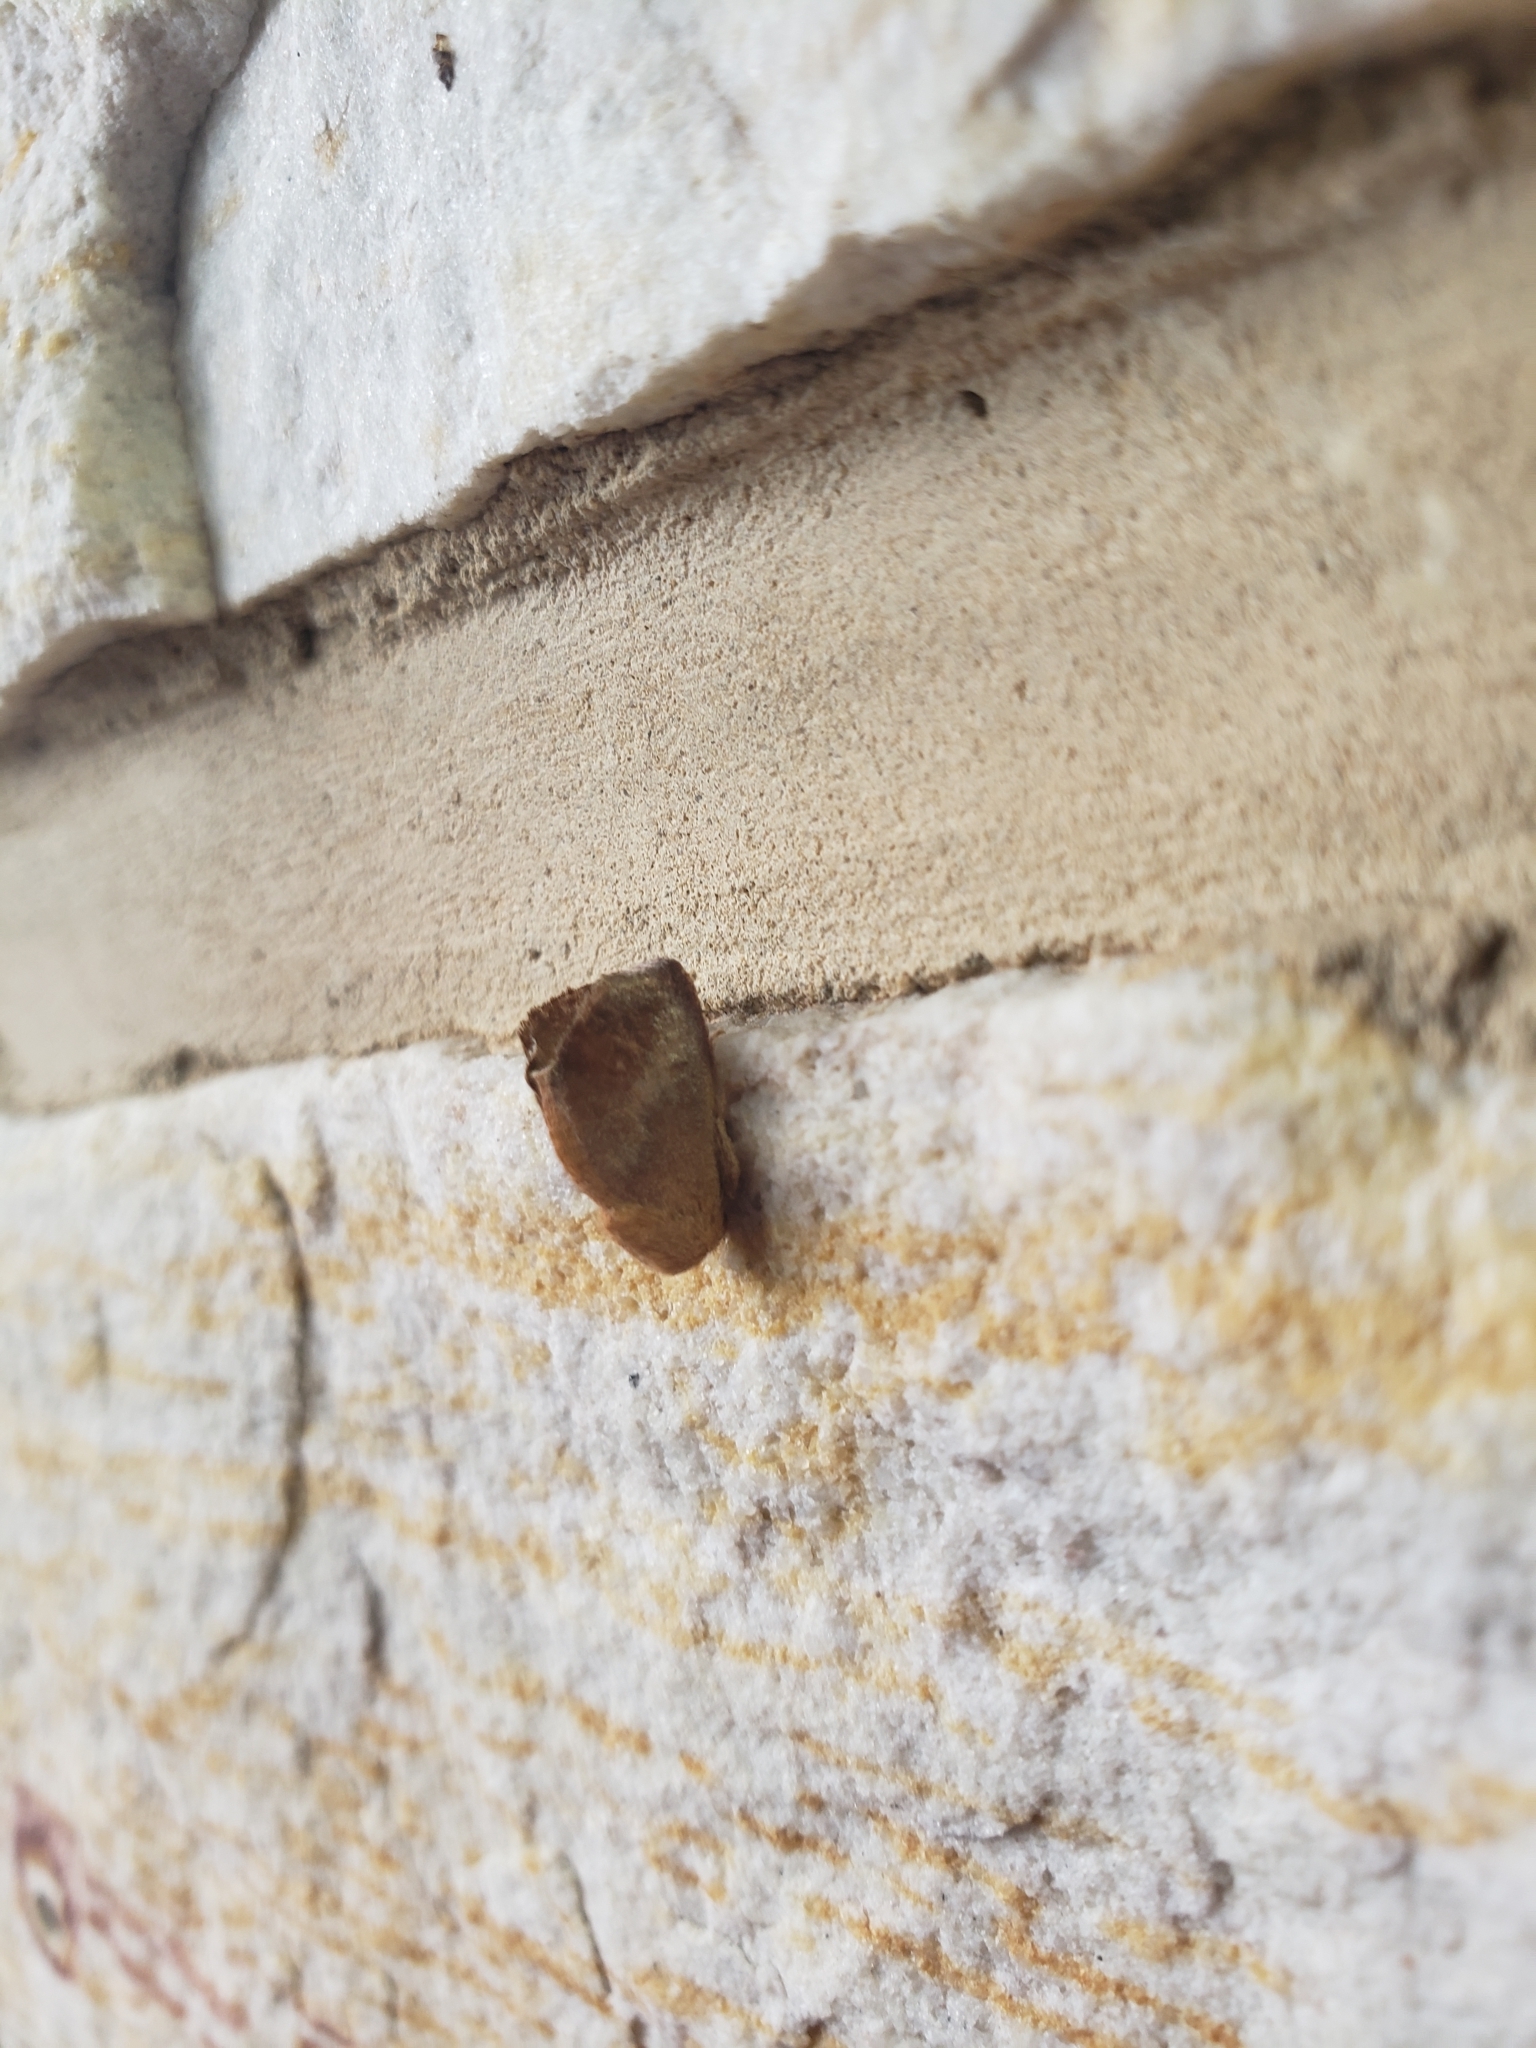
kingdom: Animalia
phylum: Arthropoda
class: Insecta
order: Lepidoptera
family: Limacodidae
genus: Isa
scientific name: Isa textula
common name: Crowned slug moth
